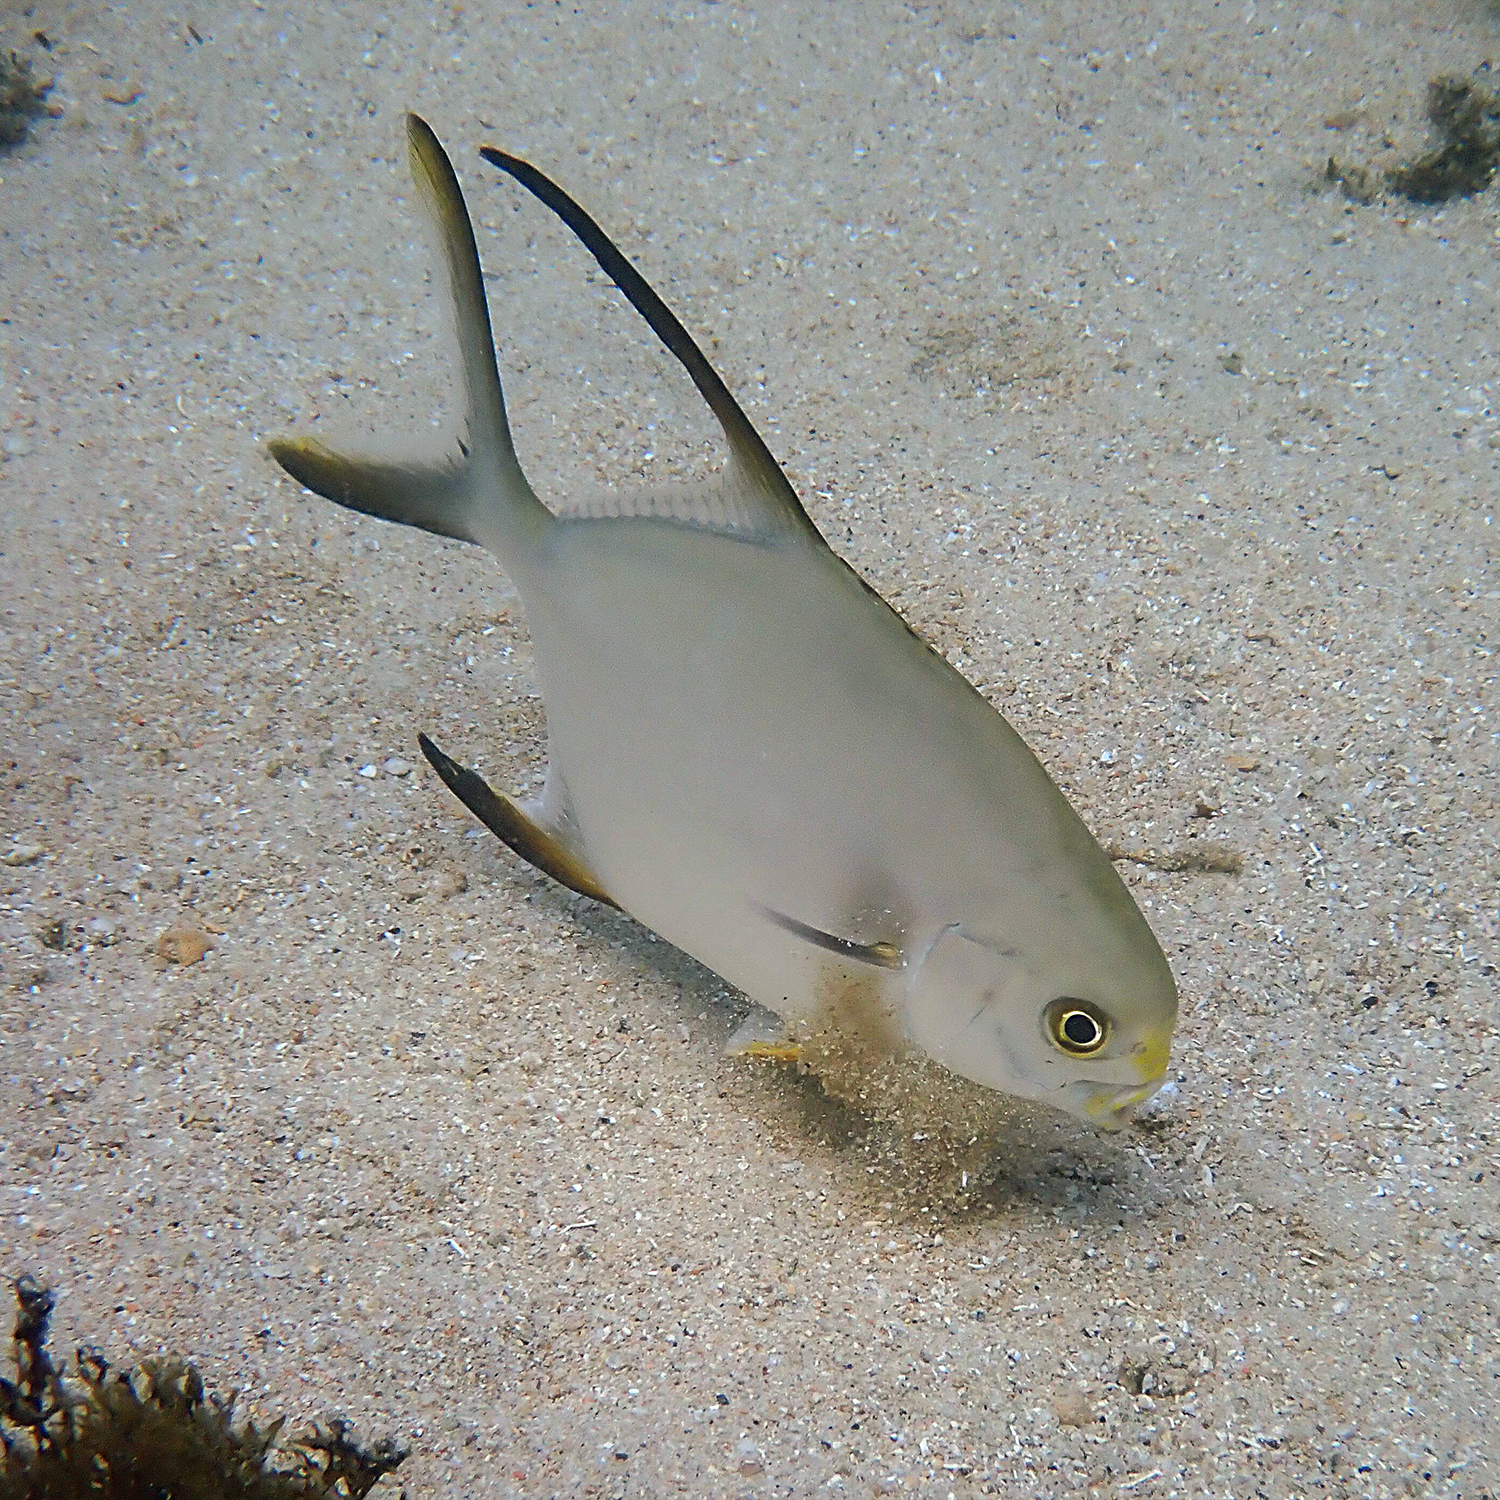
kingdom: Animalia
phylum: Chordata
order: Perciformes
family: Carangidae
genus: Trachinotus
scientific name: Trachinotus blochii
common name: Snubnose pompano
